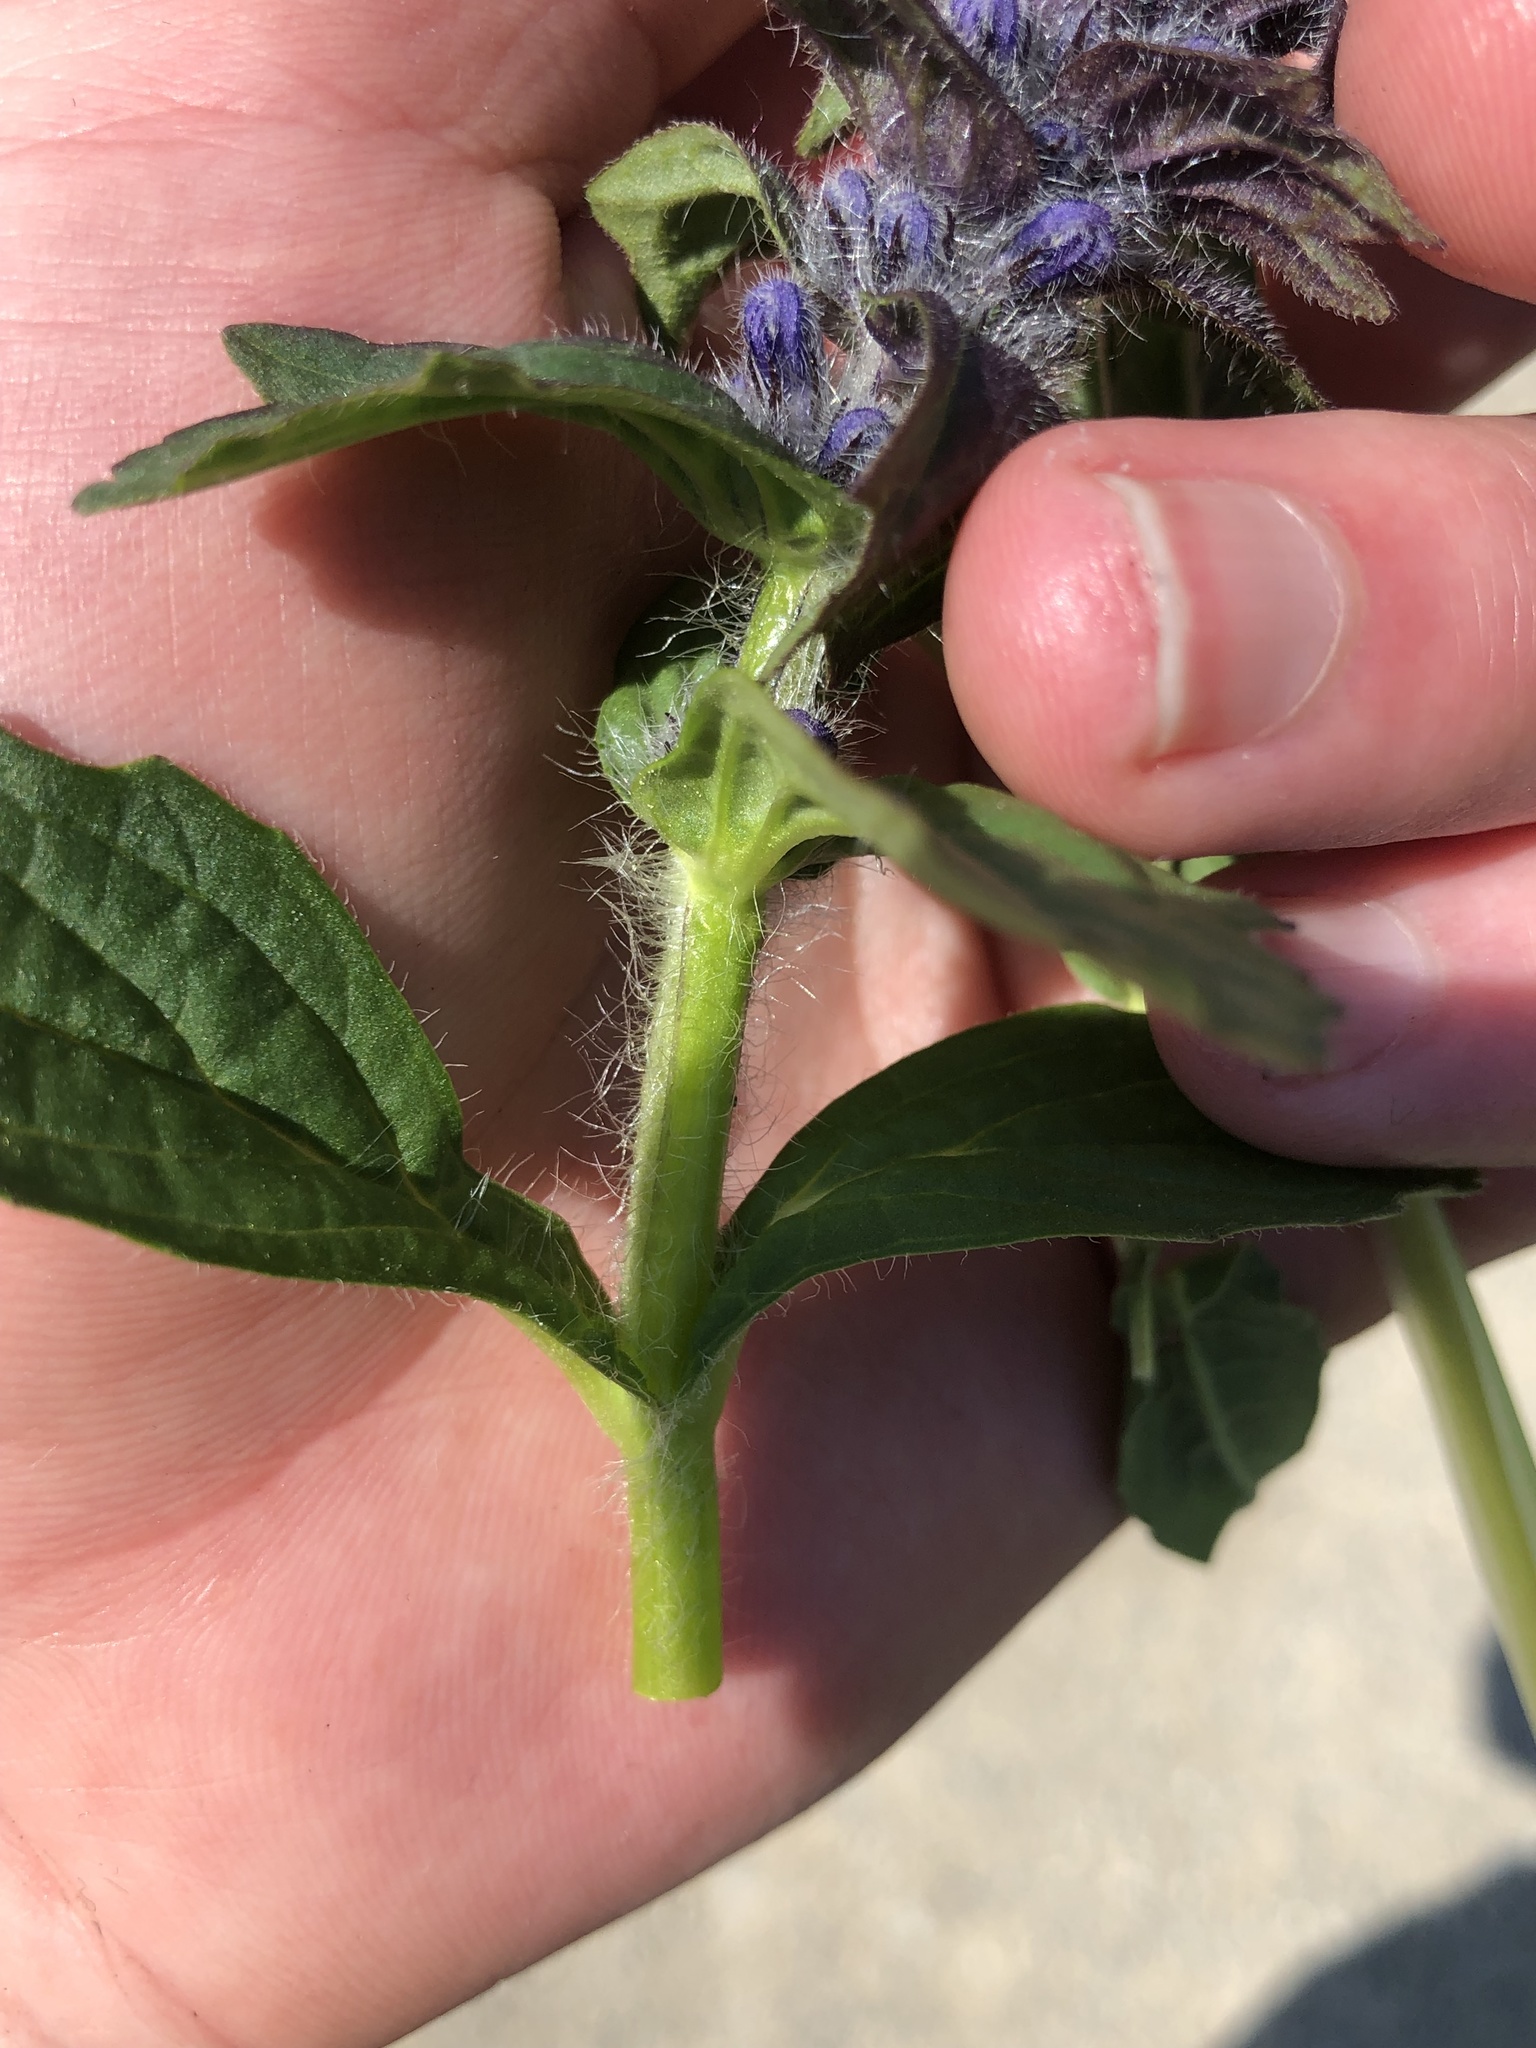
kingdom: Plantae
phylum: Tracheophyta
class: Magnoliopsida
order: Lamiales
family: Lamiaceae
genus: Ajuga
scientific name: Ajuga genevensis
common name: Blue bugle
